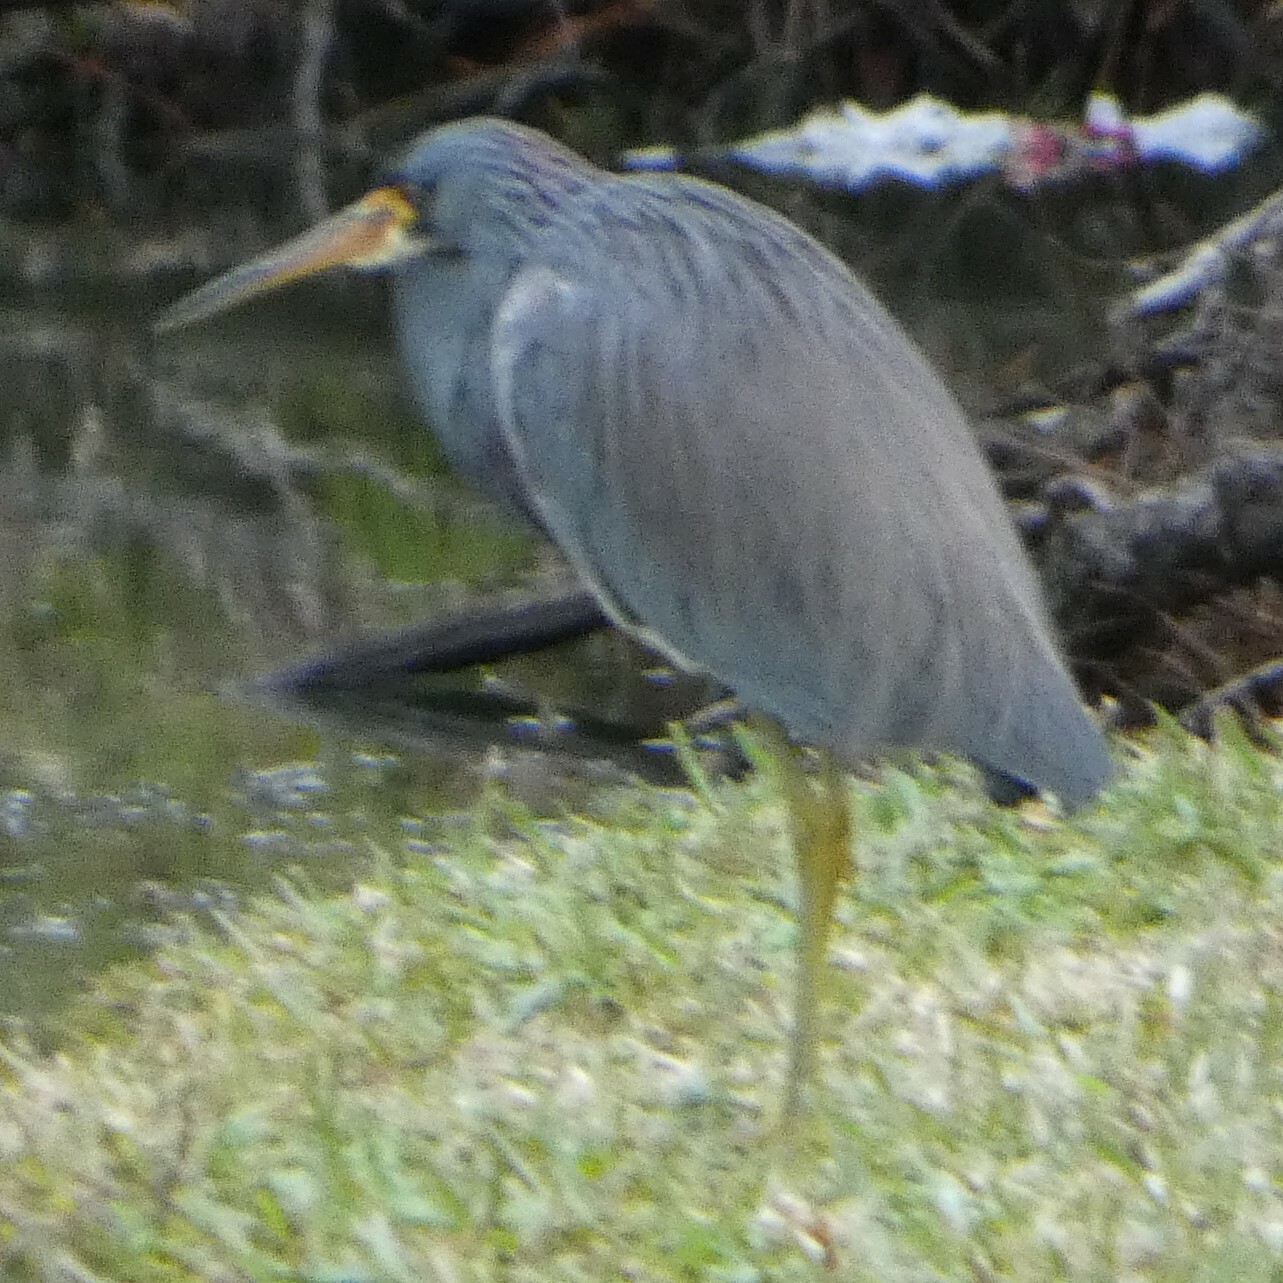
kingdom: Animalia
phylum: Chordata
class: Aves
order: Pelecaniformes
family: Ardeidae
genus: Egretta
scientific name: Egretta tricolor
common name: Tricolored heron
